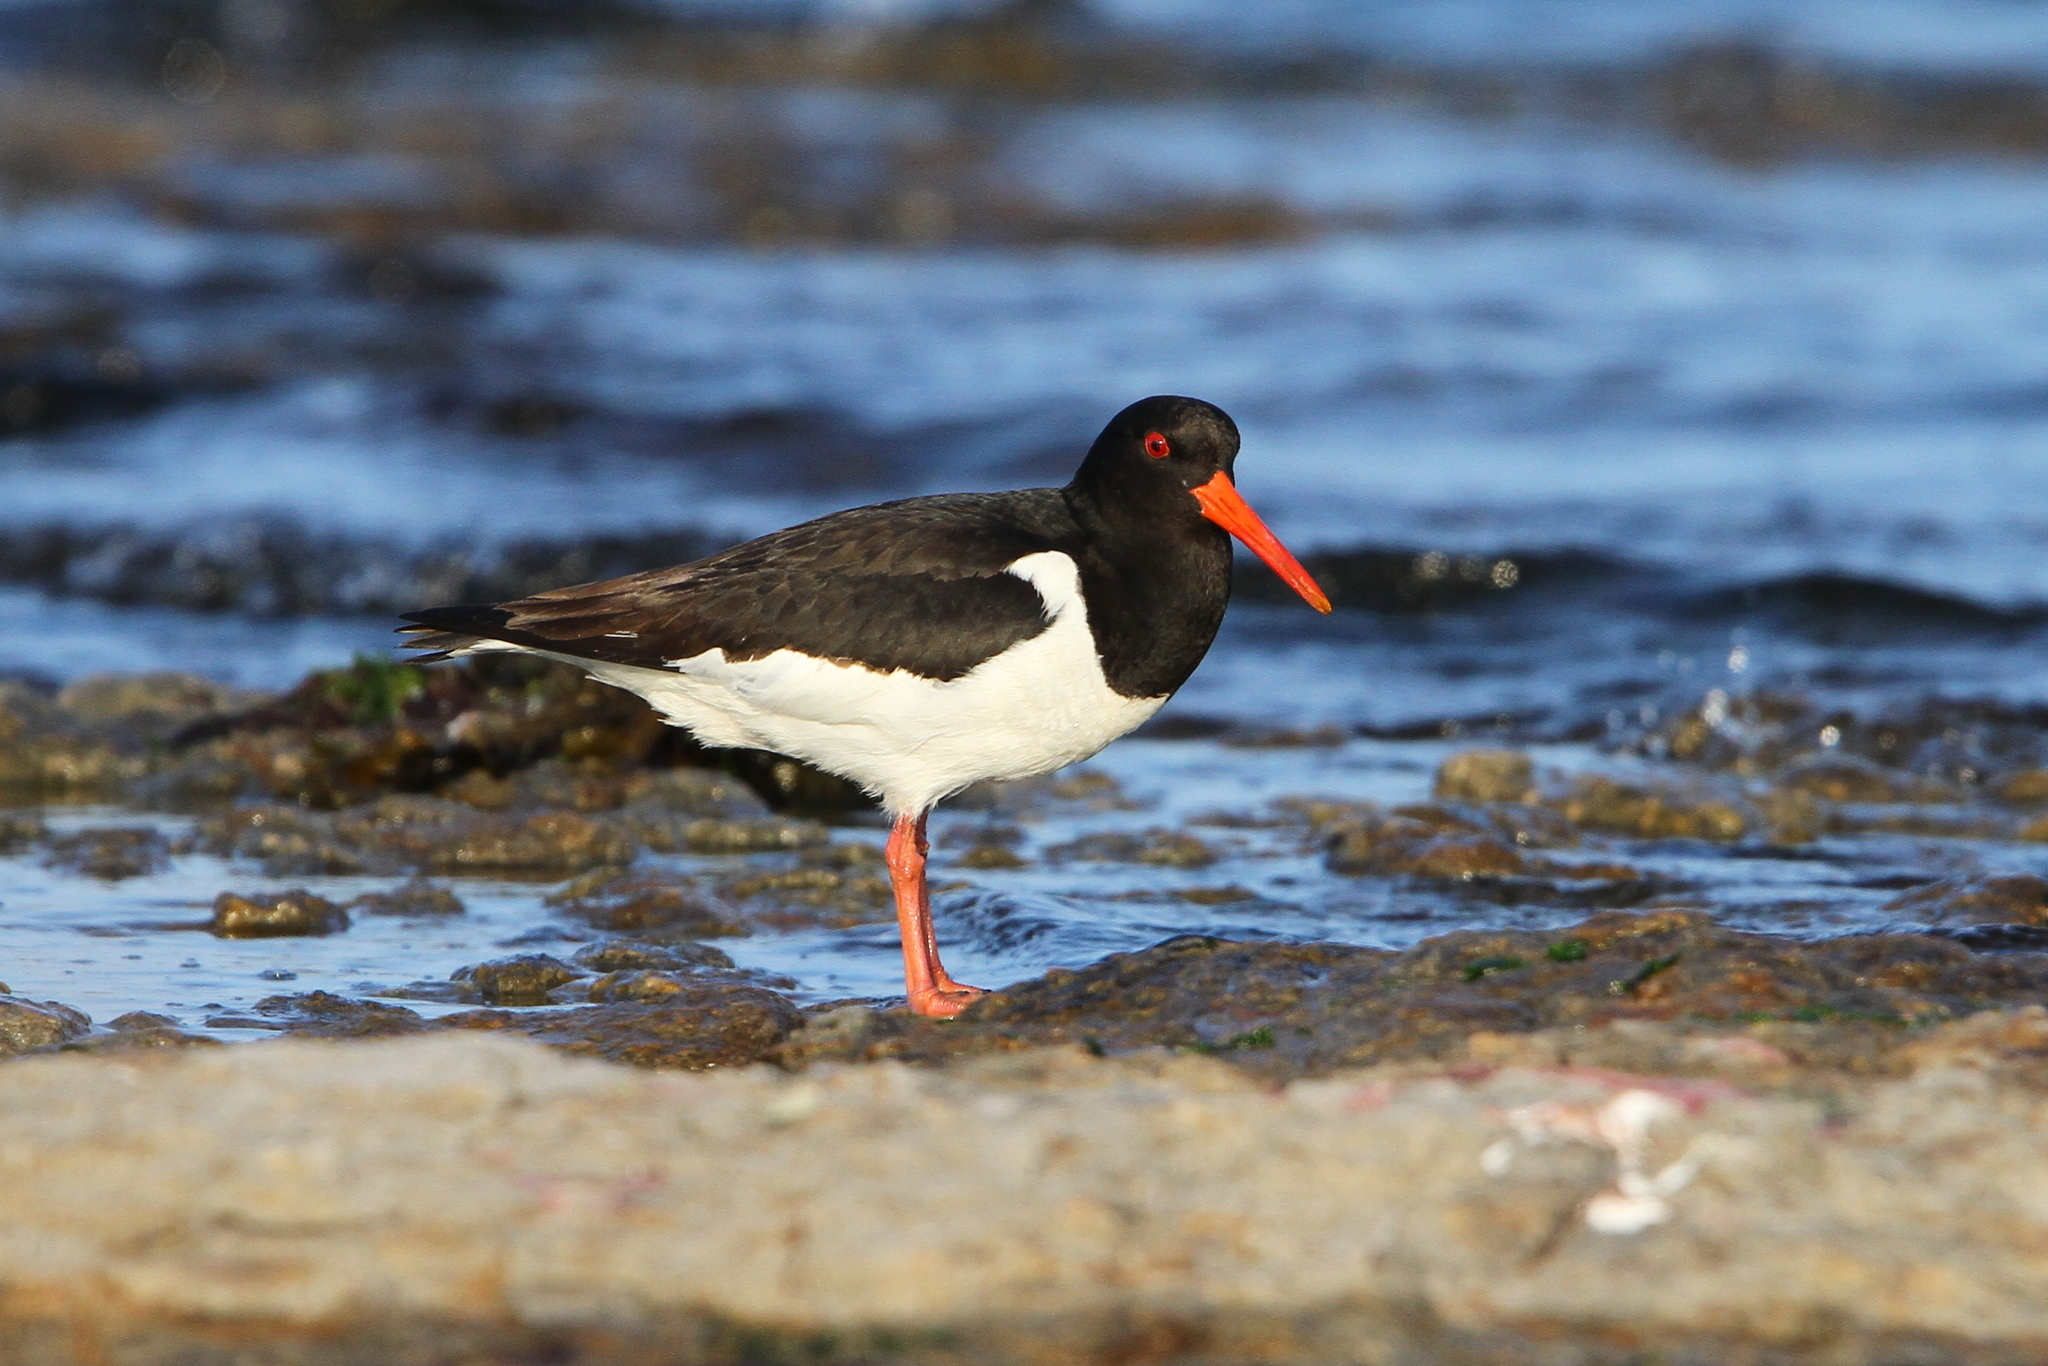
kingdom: Animalia
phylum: Chordata
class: Aves
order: Charadriiformes
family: Haematopodidae
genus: Haematopus
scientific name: Haematopus ostralegus
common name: Eurasian oystercatcher
